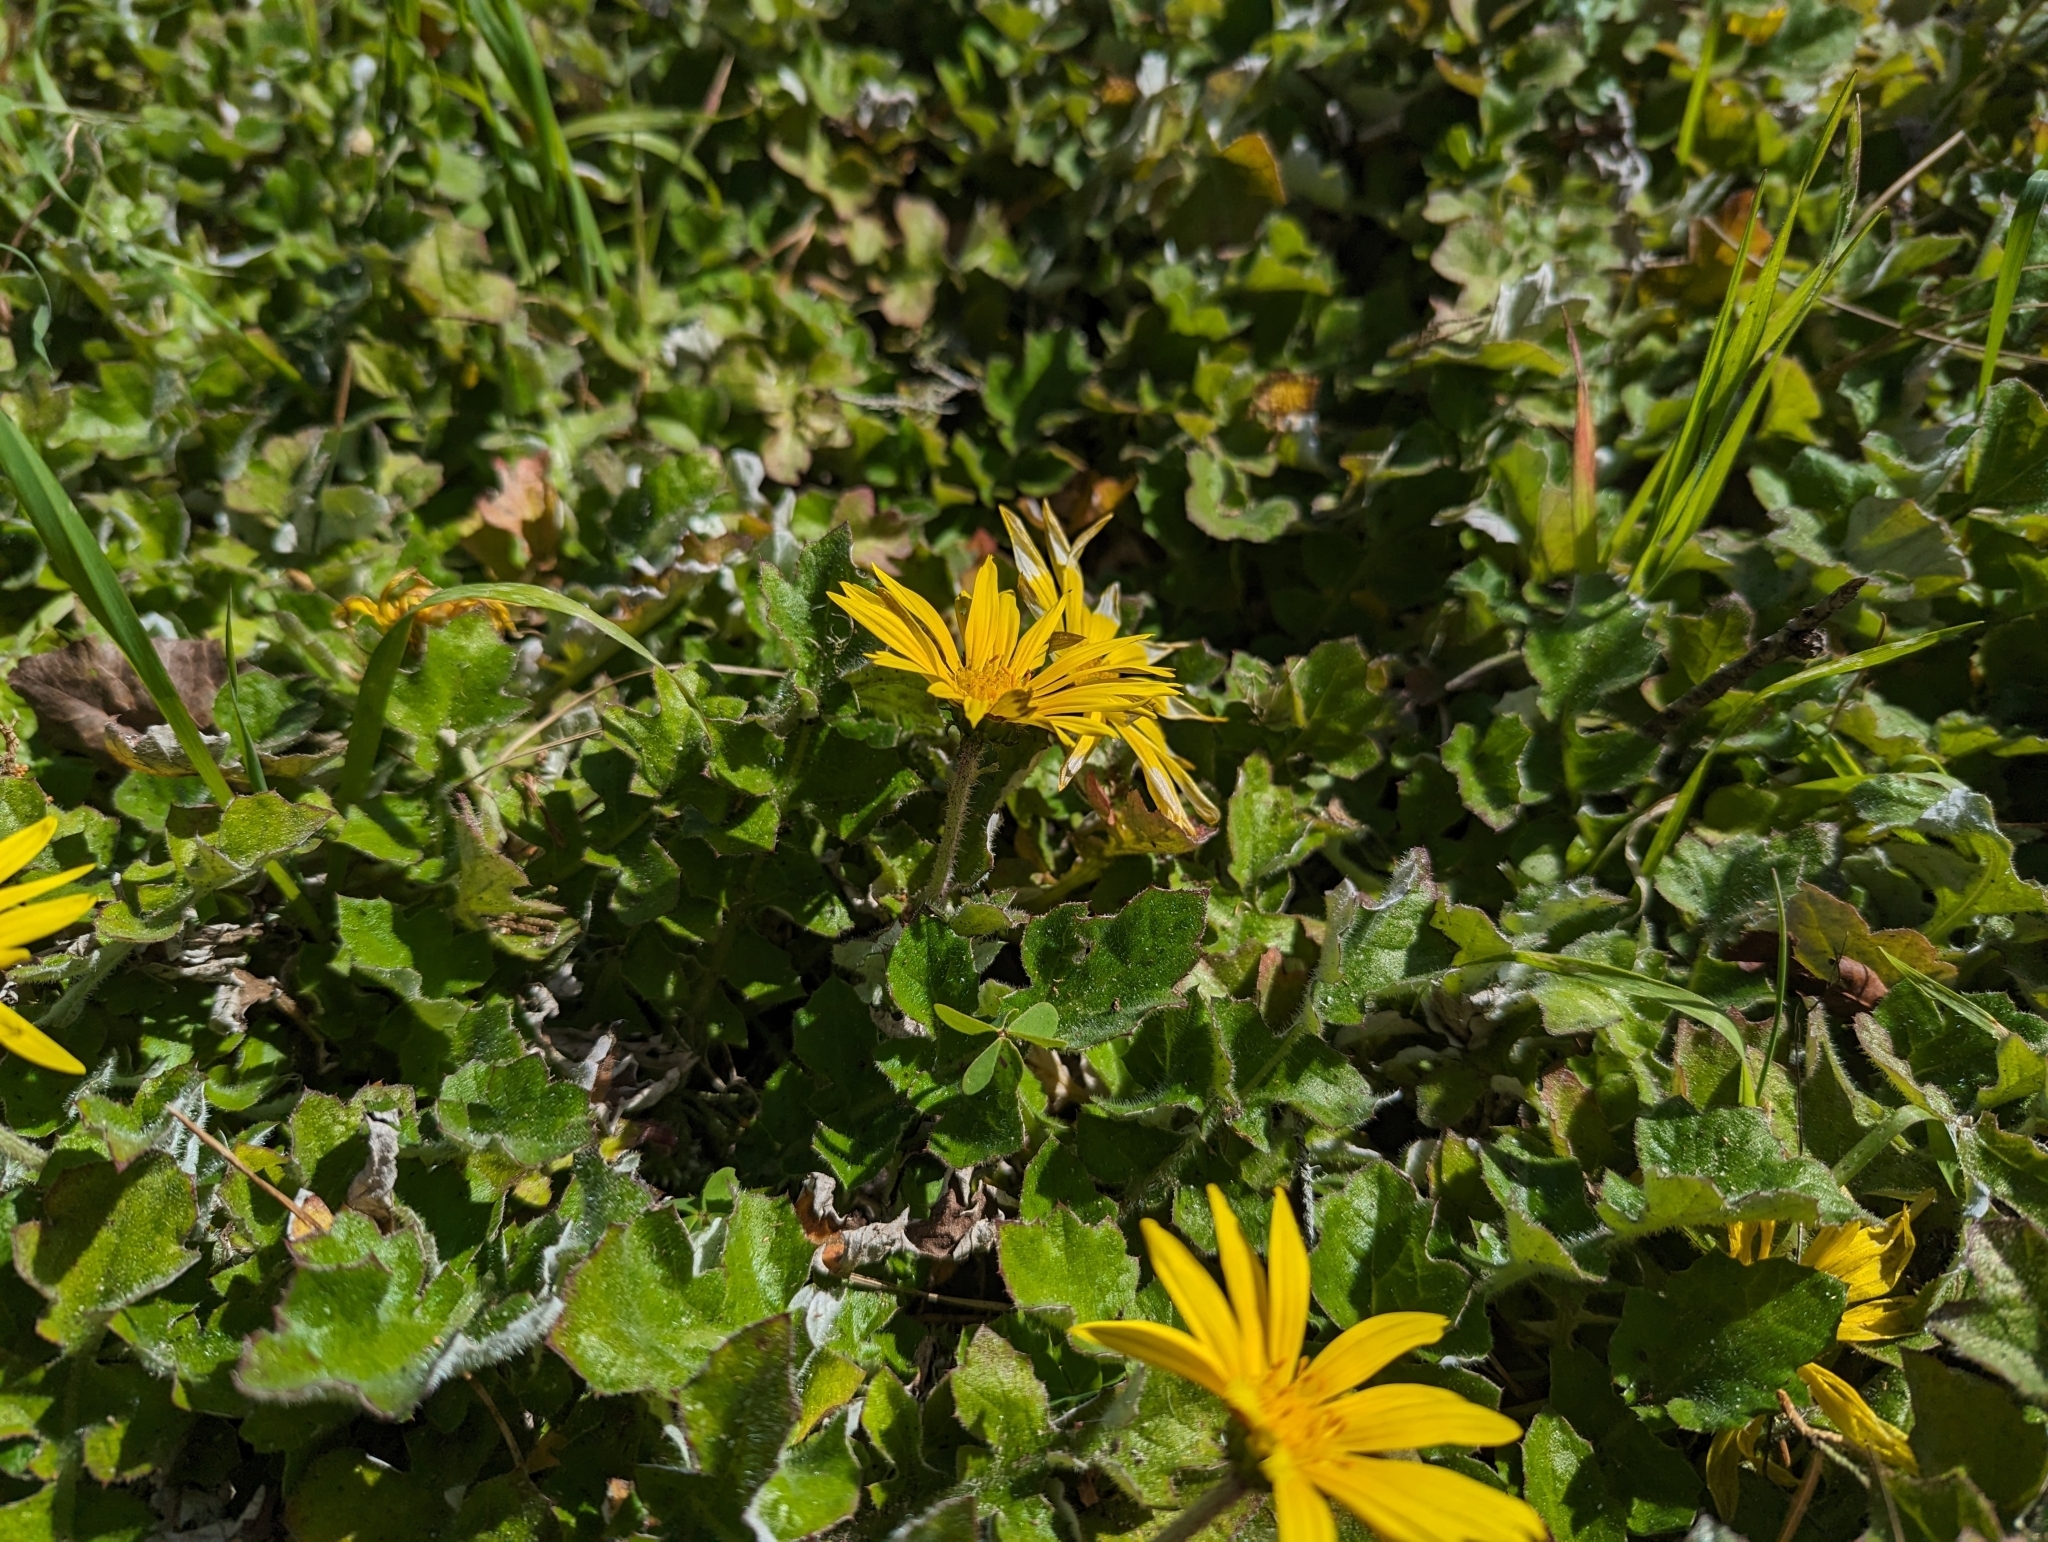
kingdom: Plantae
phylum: Tracheophyta
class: Magnoliopsida
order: Asterales
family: Asteraceae
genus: Arctotheca
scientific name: Arctotheca prostrata
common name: Capeweed
